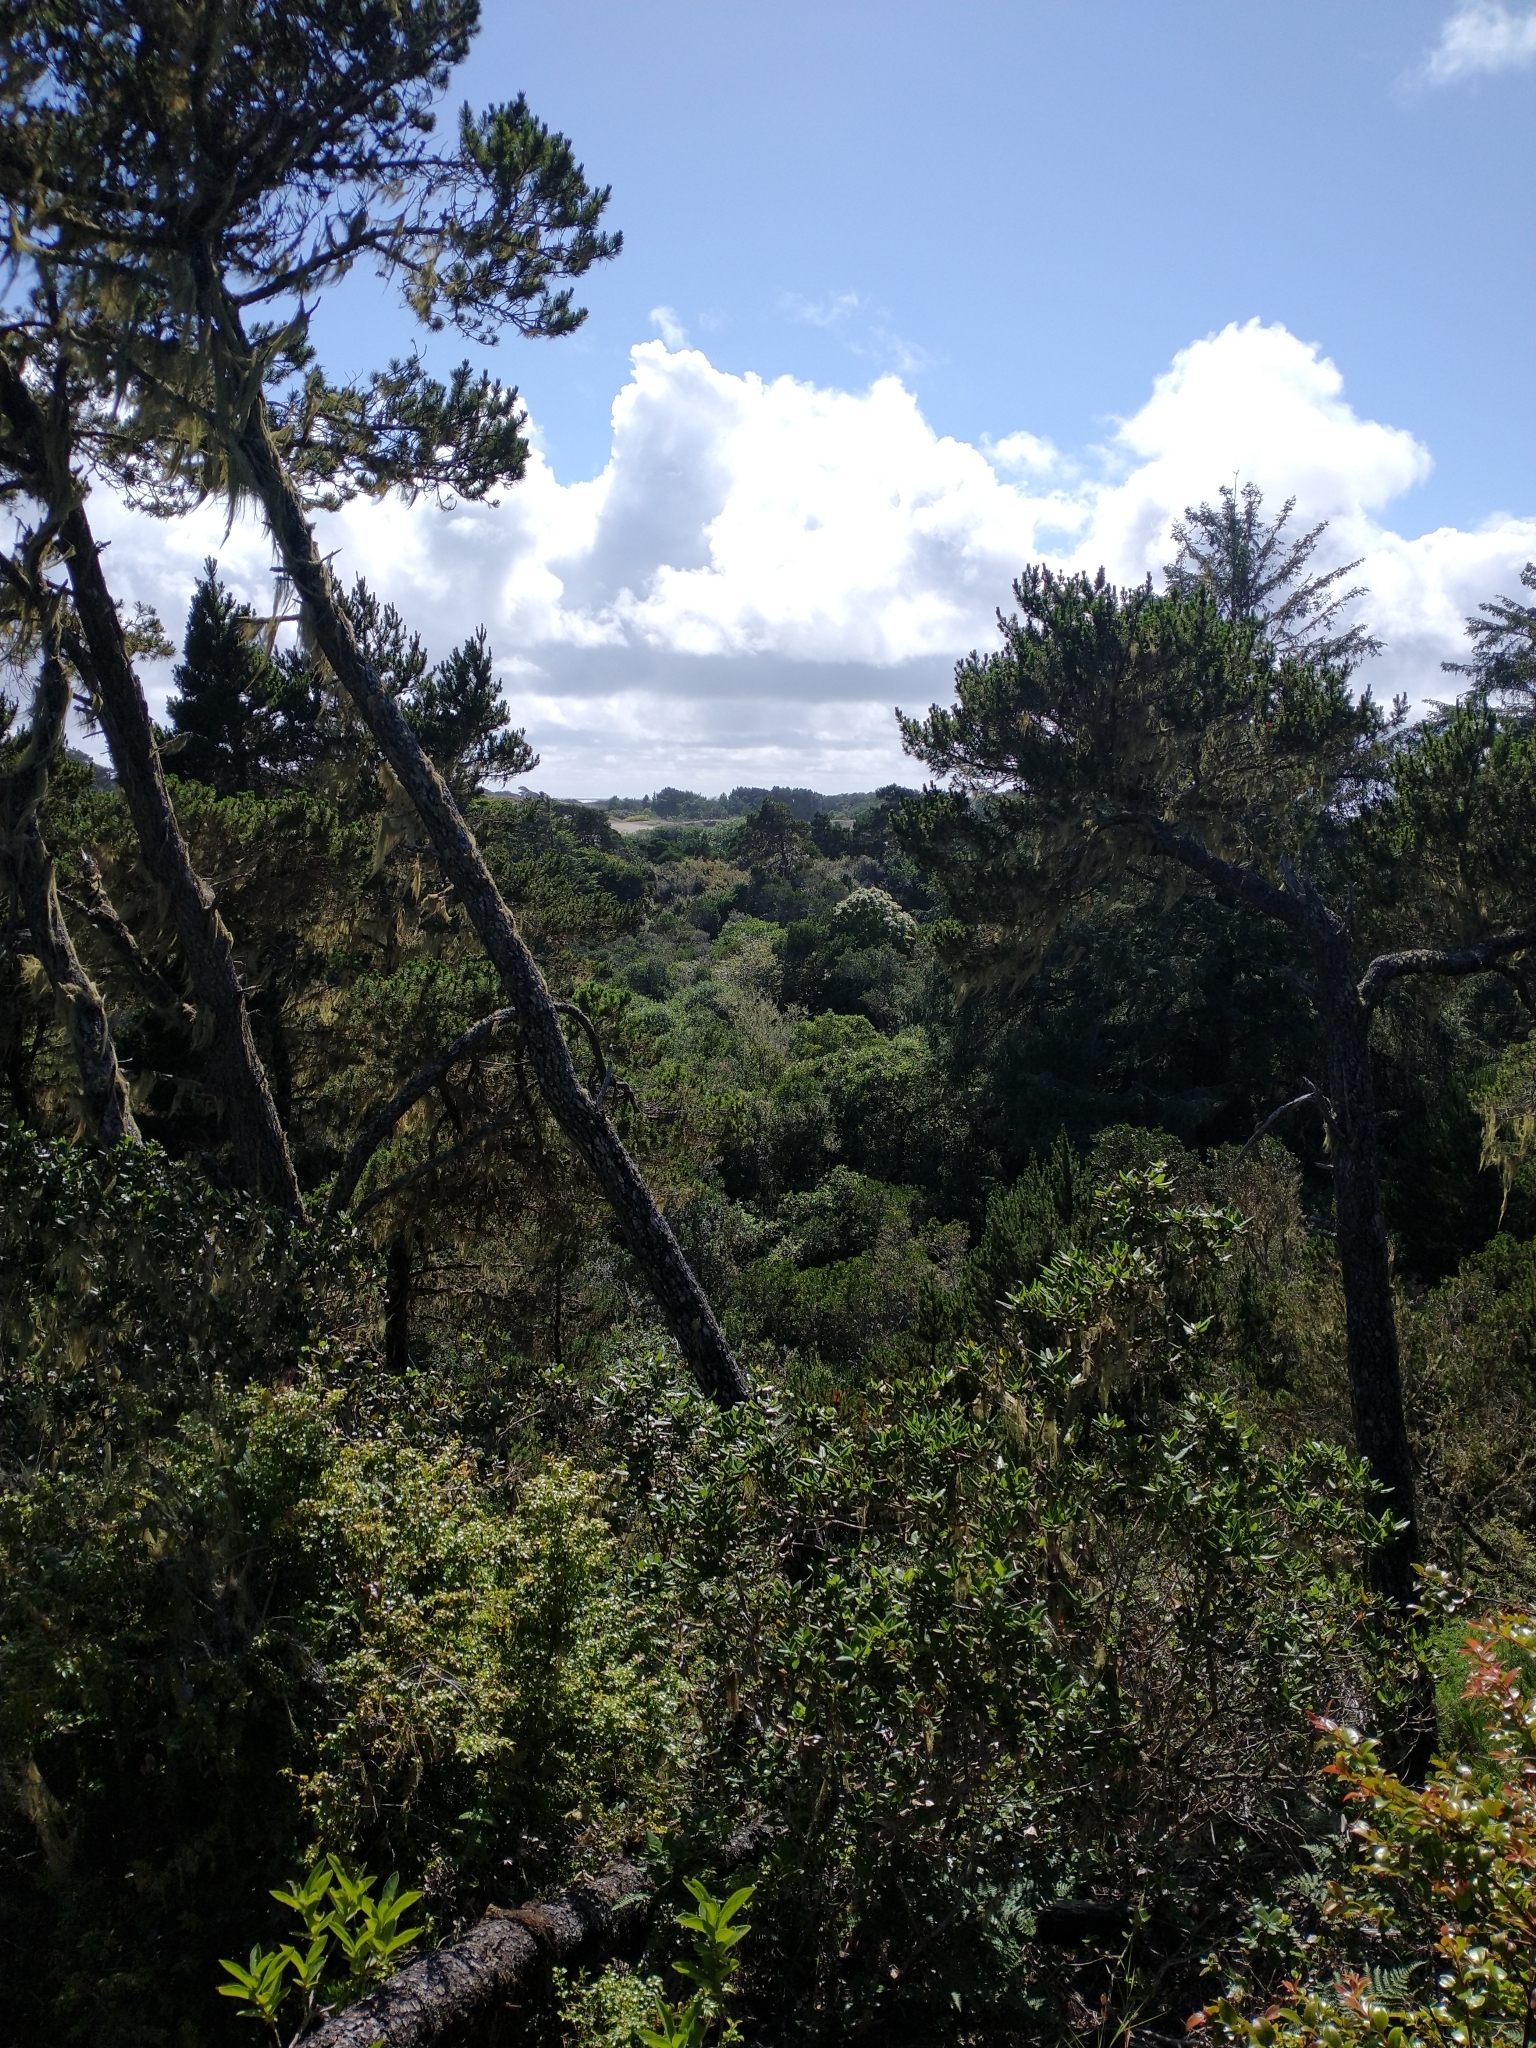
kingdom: Plantae
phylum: Tracheophyta
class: Pinopsida
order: Pinales
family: Pinaceae
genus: Pinus
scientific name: Pinus contorta
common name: Lodgepole pine
